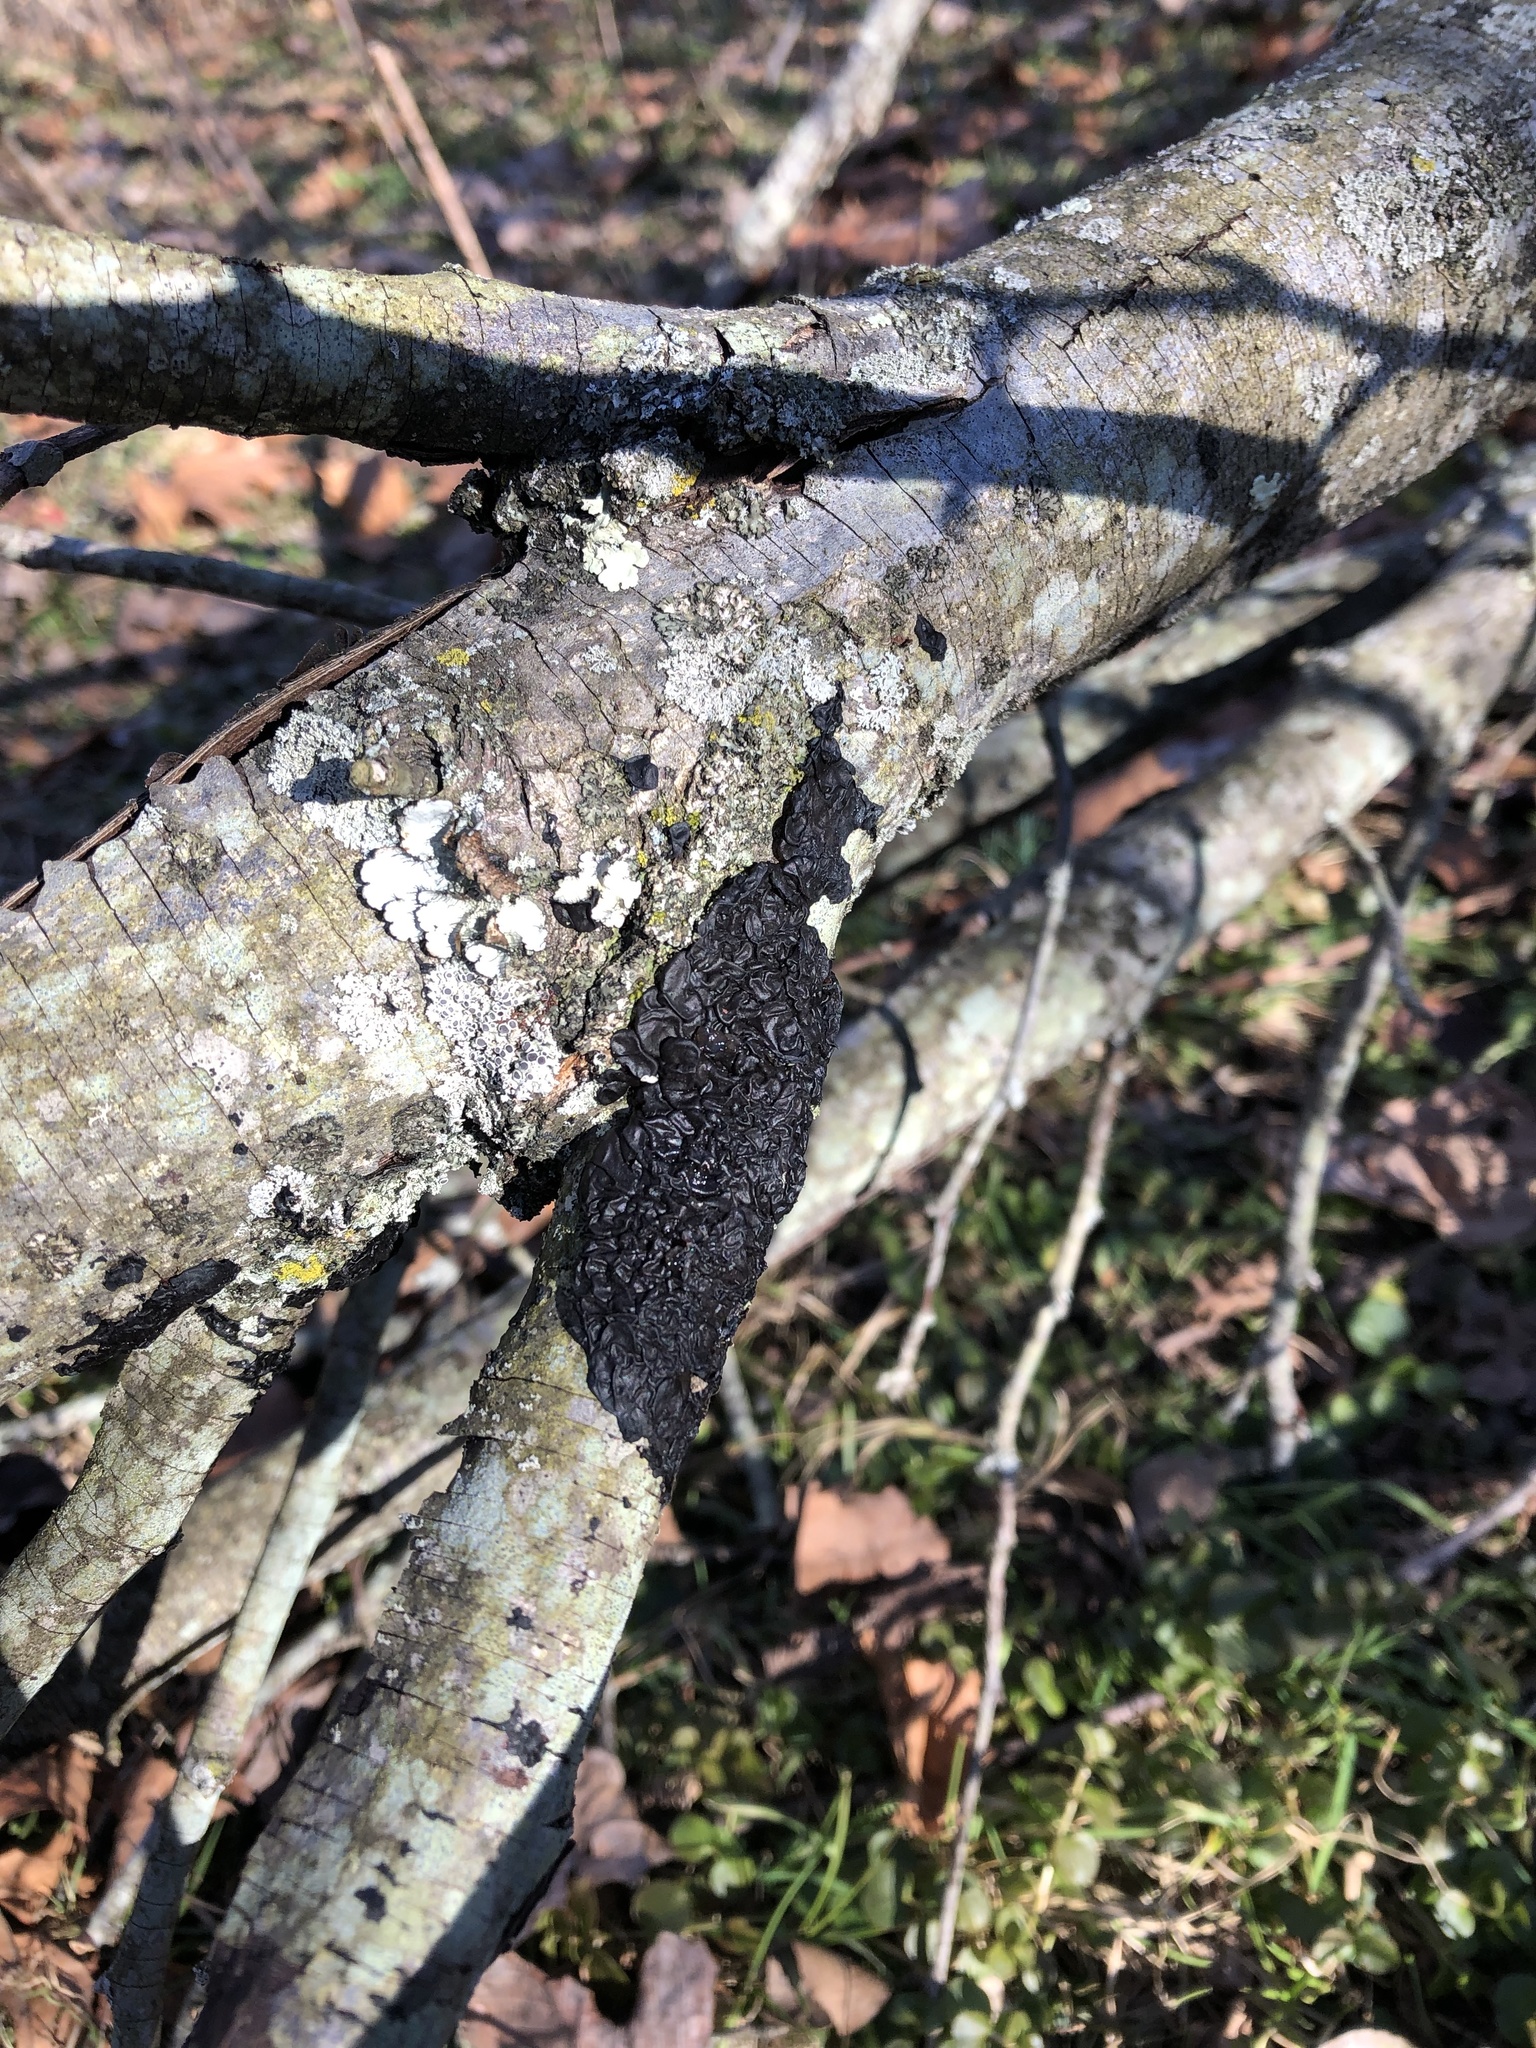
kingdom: Fungi
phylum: Basidiomycota
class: Agaricomycetes
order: Auriculariales
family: Auriculariaceae
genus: Exidia
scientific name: Exidia nigricans
